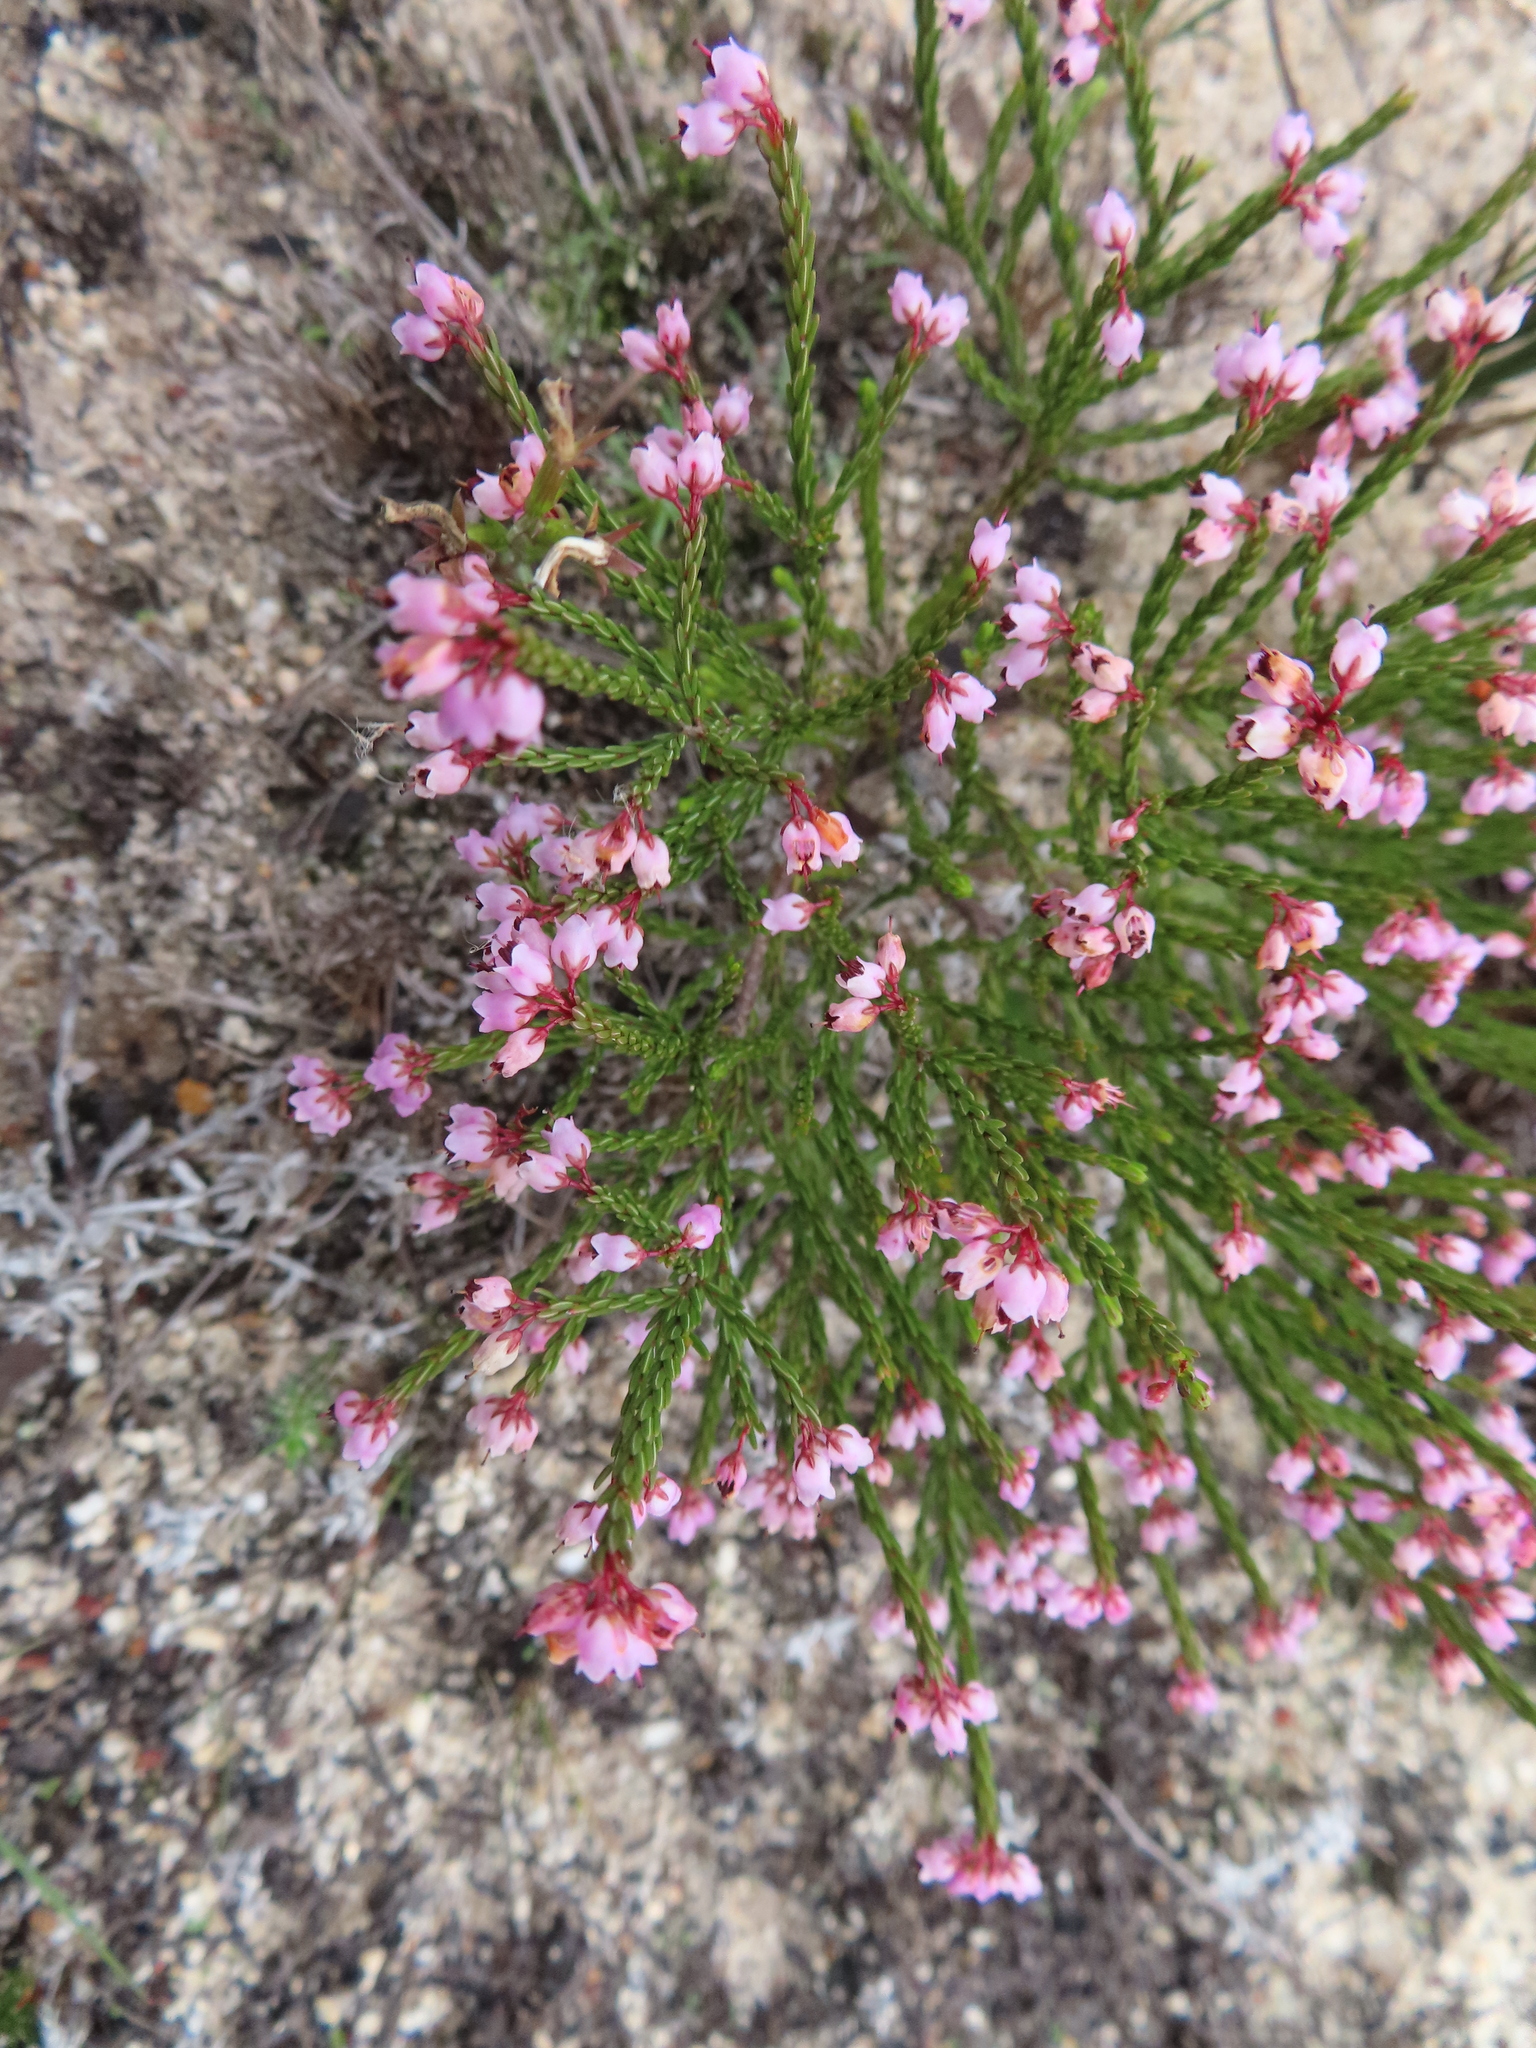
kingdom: Plantae
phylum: Tracheophyta
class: Magnoliopsida
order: Ericales
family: Ericaceae
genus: Erica
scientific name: Erica quadrangularis
